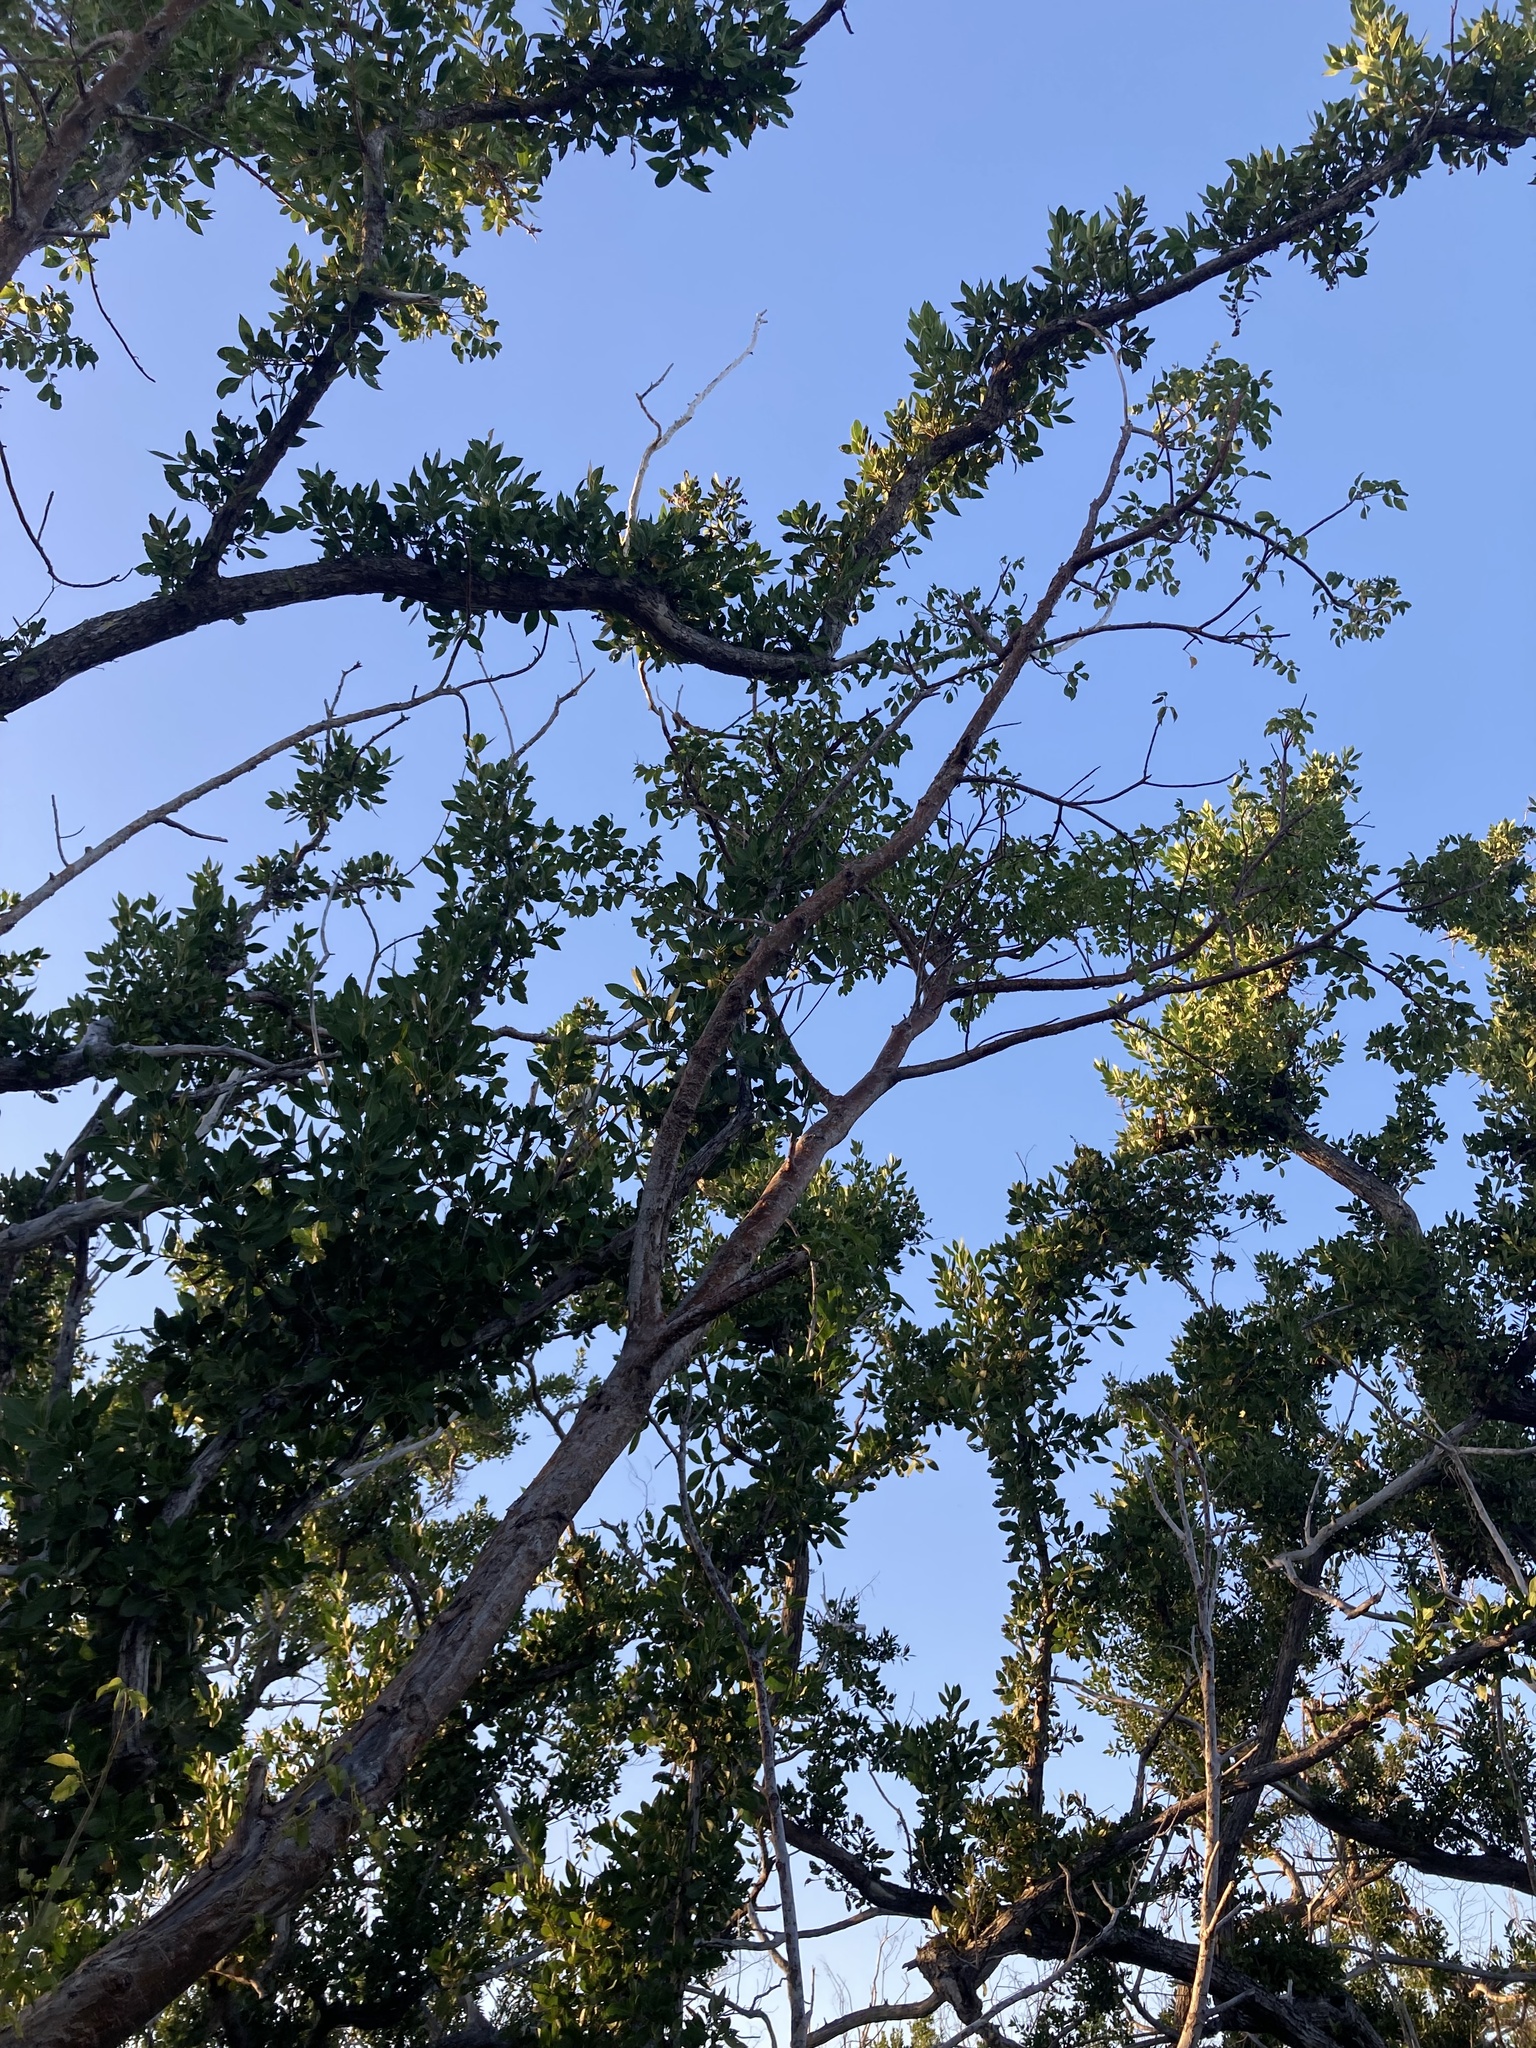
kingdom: Plantae
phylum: Tracheophyta
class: Magnoliopsida
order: Sapindales
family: Burseraceae
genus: Bursera
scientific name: Bursera simaruba
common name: Turpentine tree
